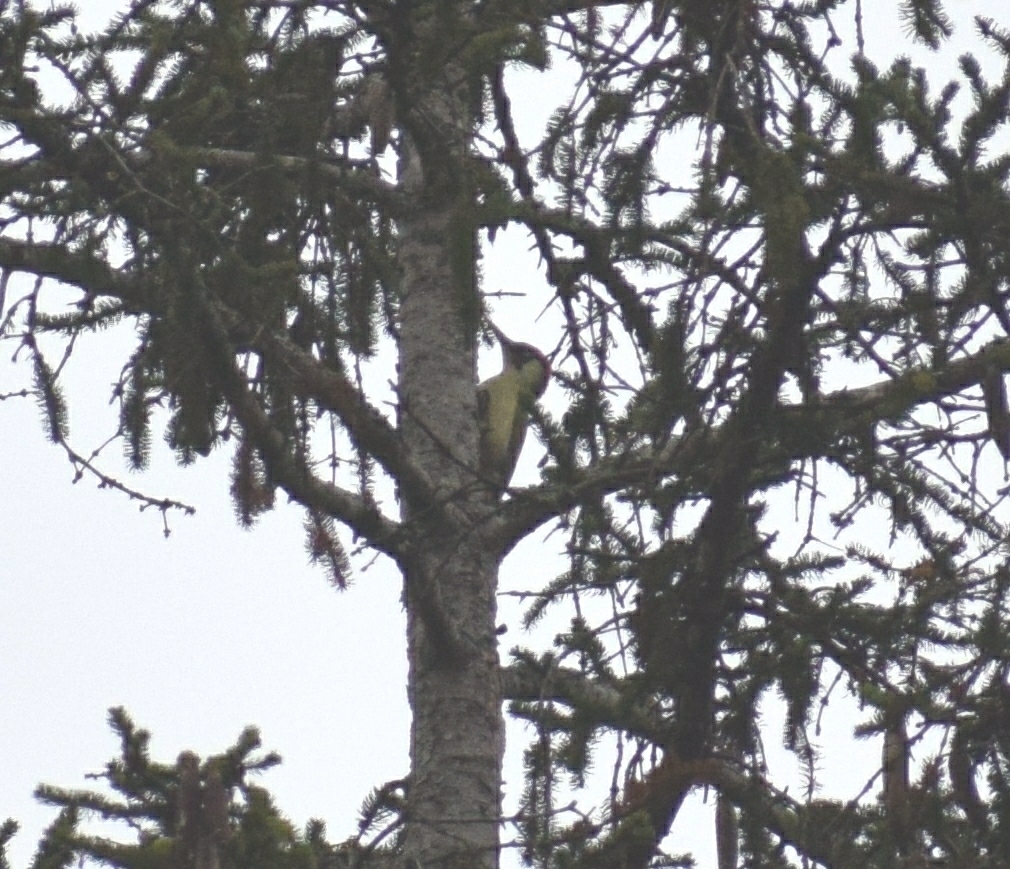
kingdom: Animalia
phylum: Chordata
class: Aves
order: Piciformes
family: Picidae
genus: Picus
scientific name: Picus viridis
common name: European green woodpecker
